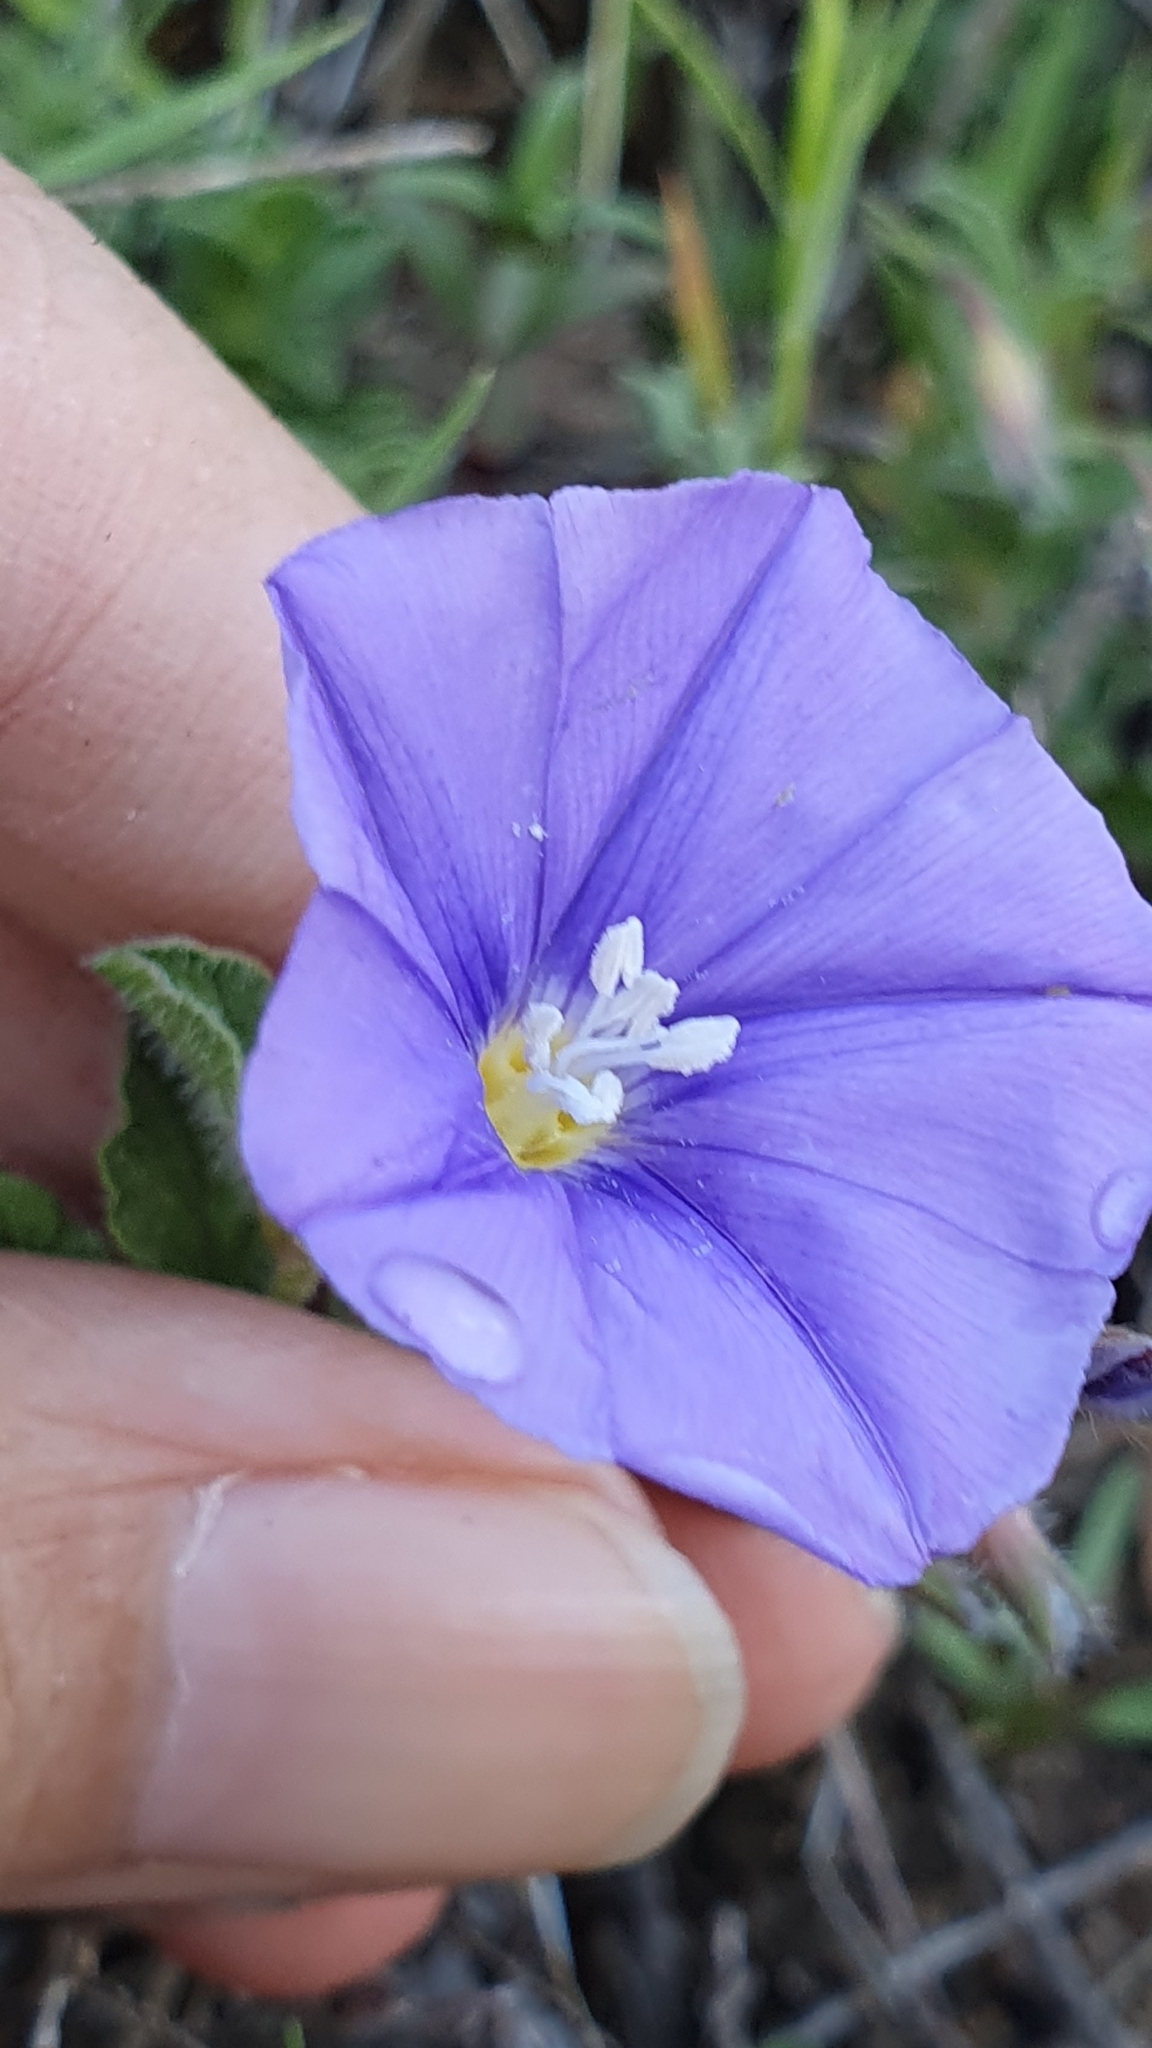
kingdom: Plantae
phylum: Tracheophyta
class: Magnoliopsida
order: Solanales
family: Convolvulaceae
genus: Convolvulus
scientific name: Convolvulus sabatius
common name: Ground blue-convolvulus
